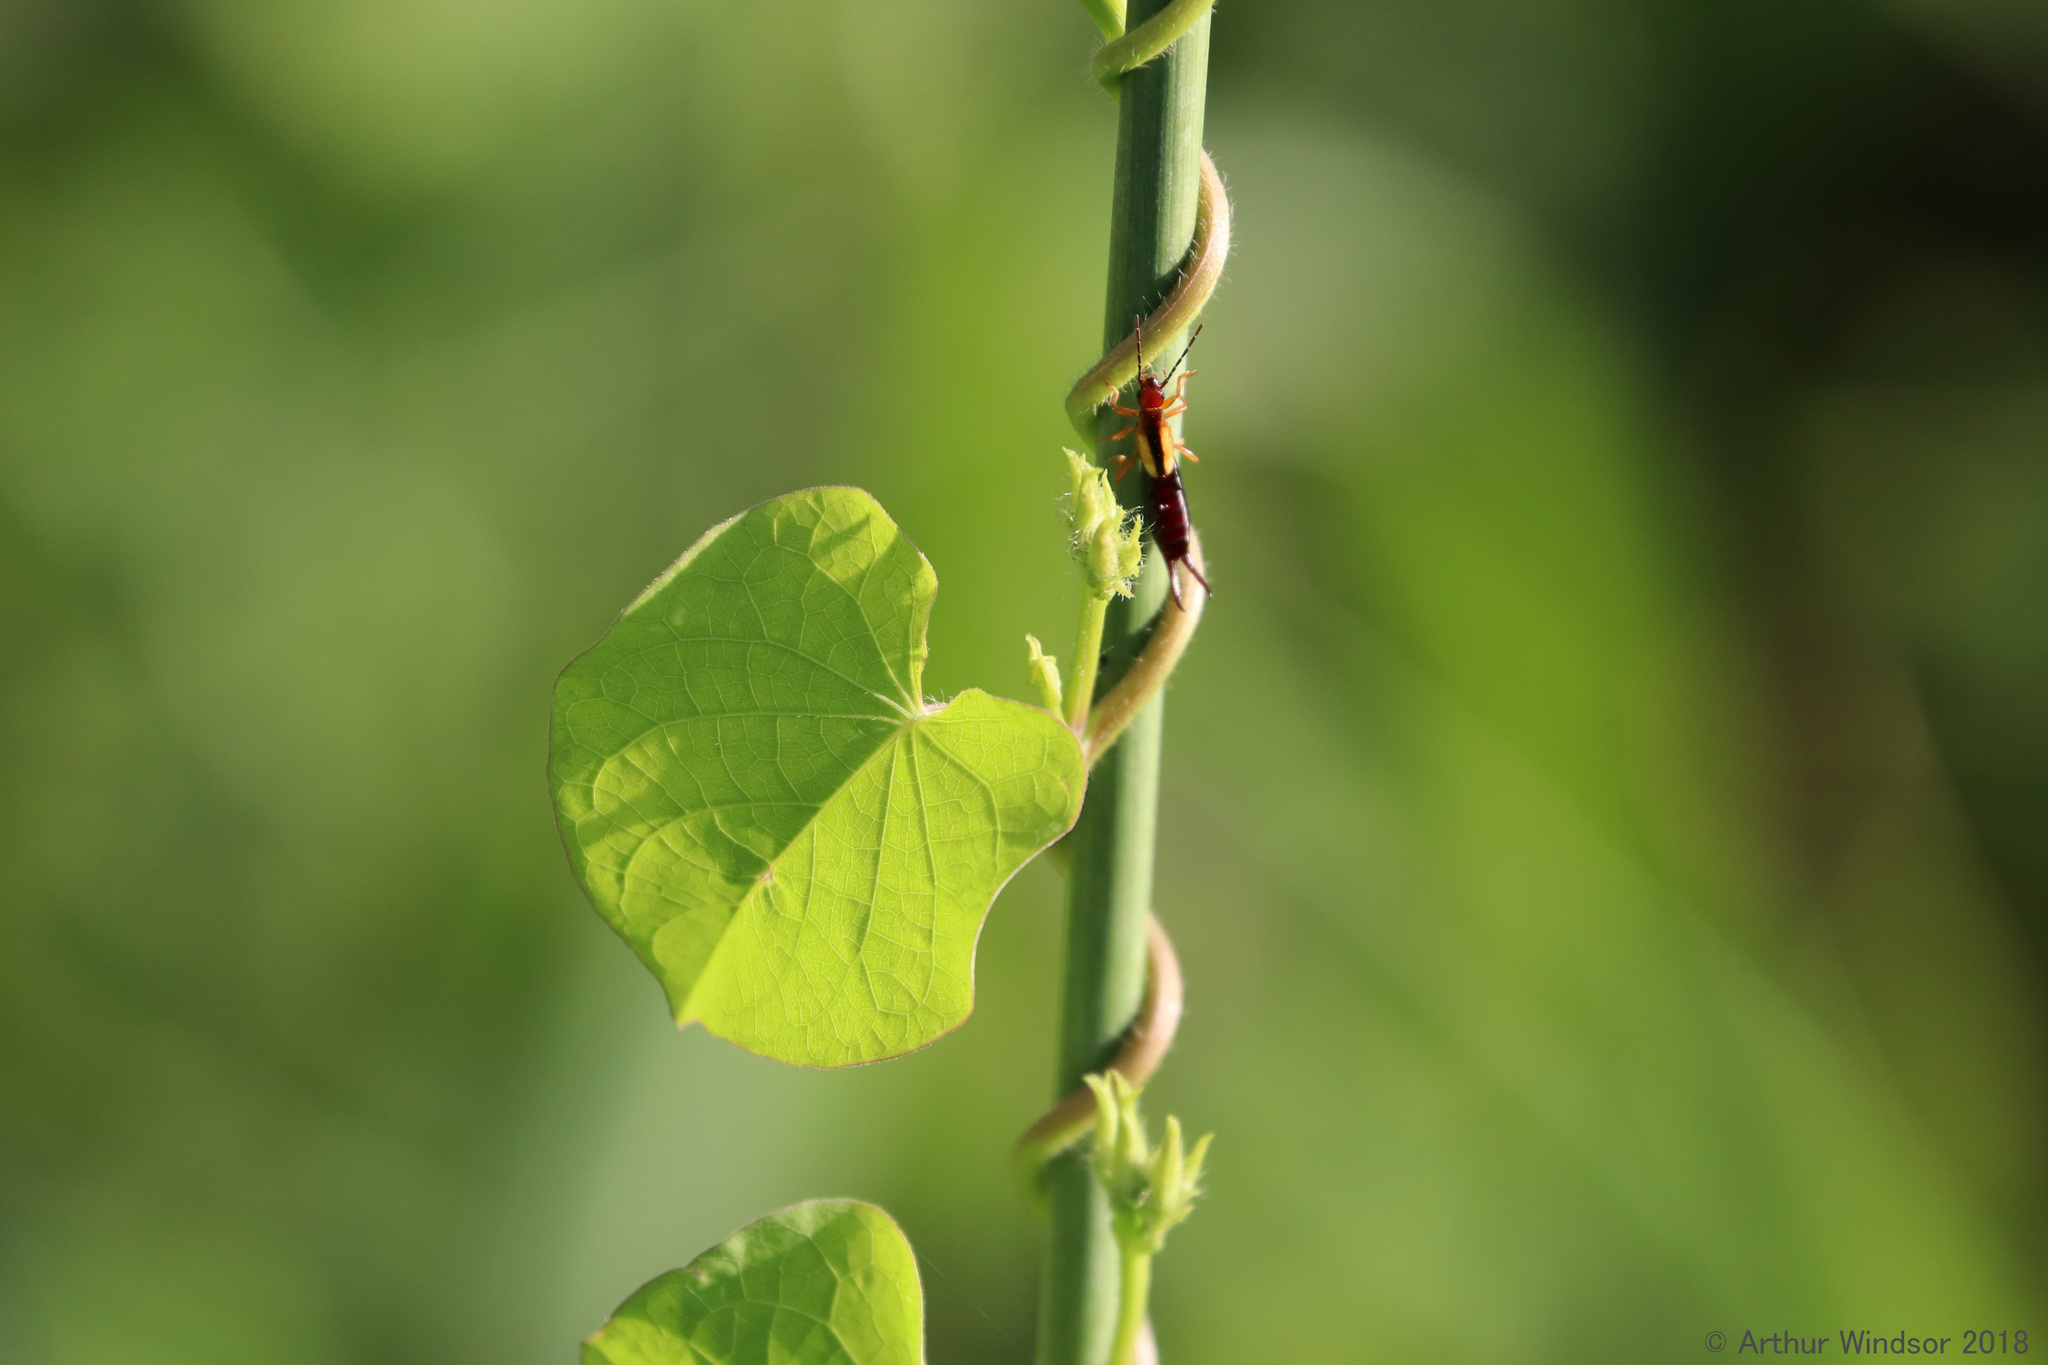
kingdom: Animalia
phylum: Arthropoda
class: Insecta
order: Dermaptera
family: Forficulidae
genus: Doru
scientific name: Doru taeniatum
